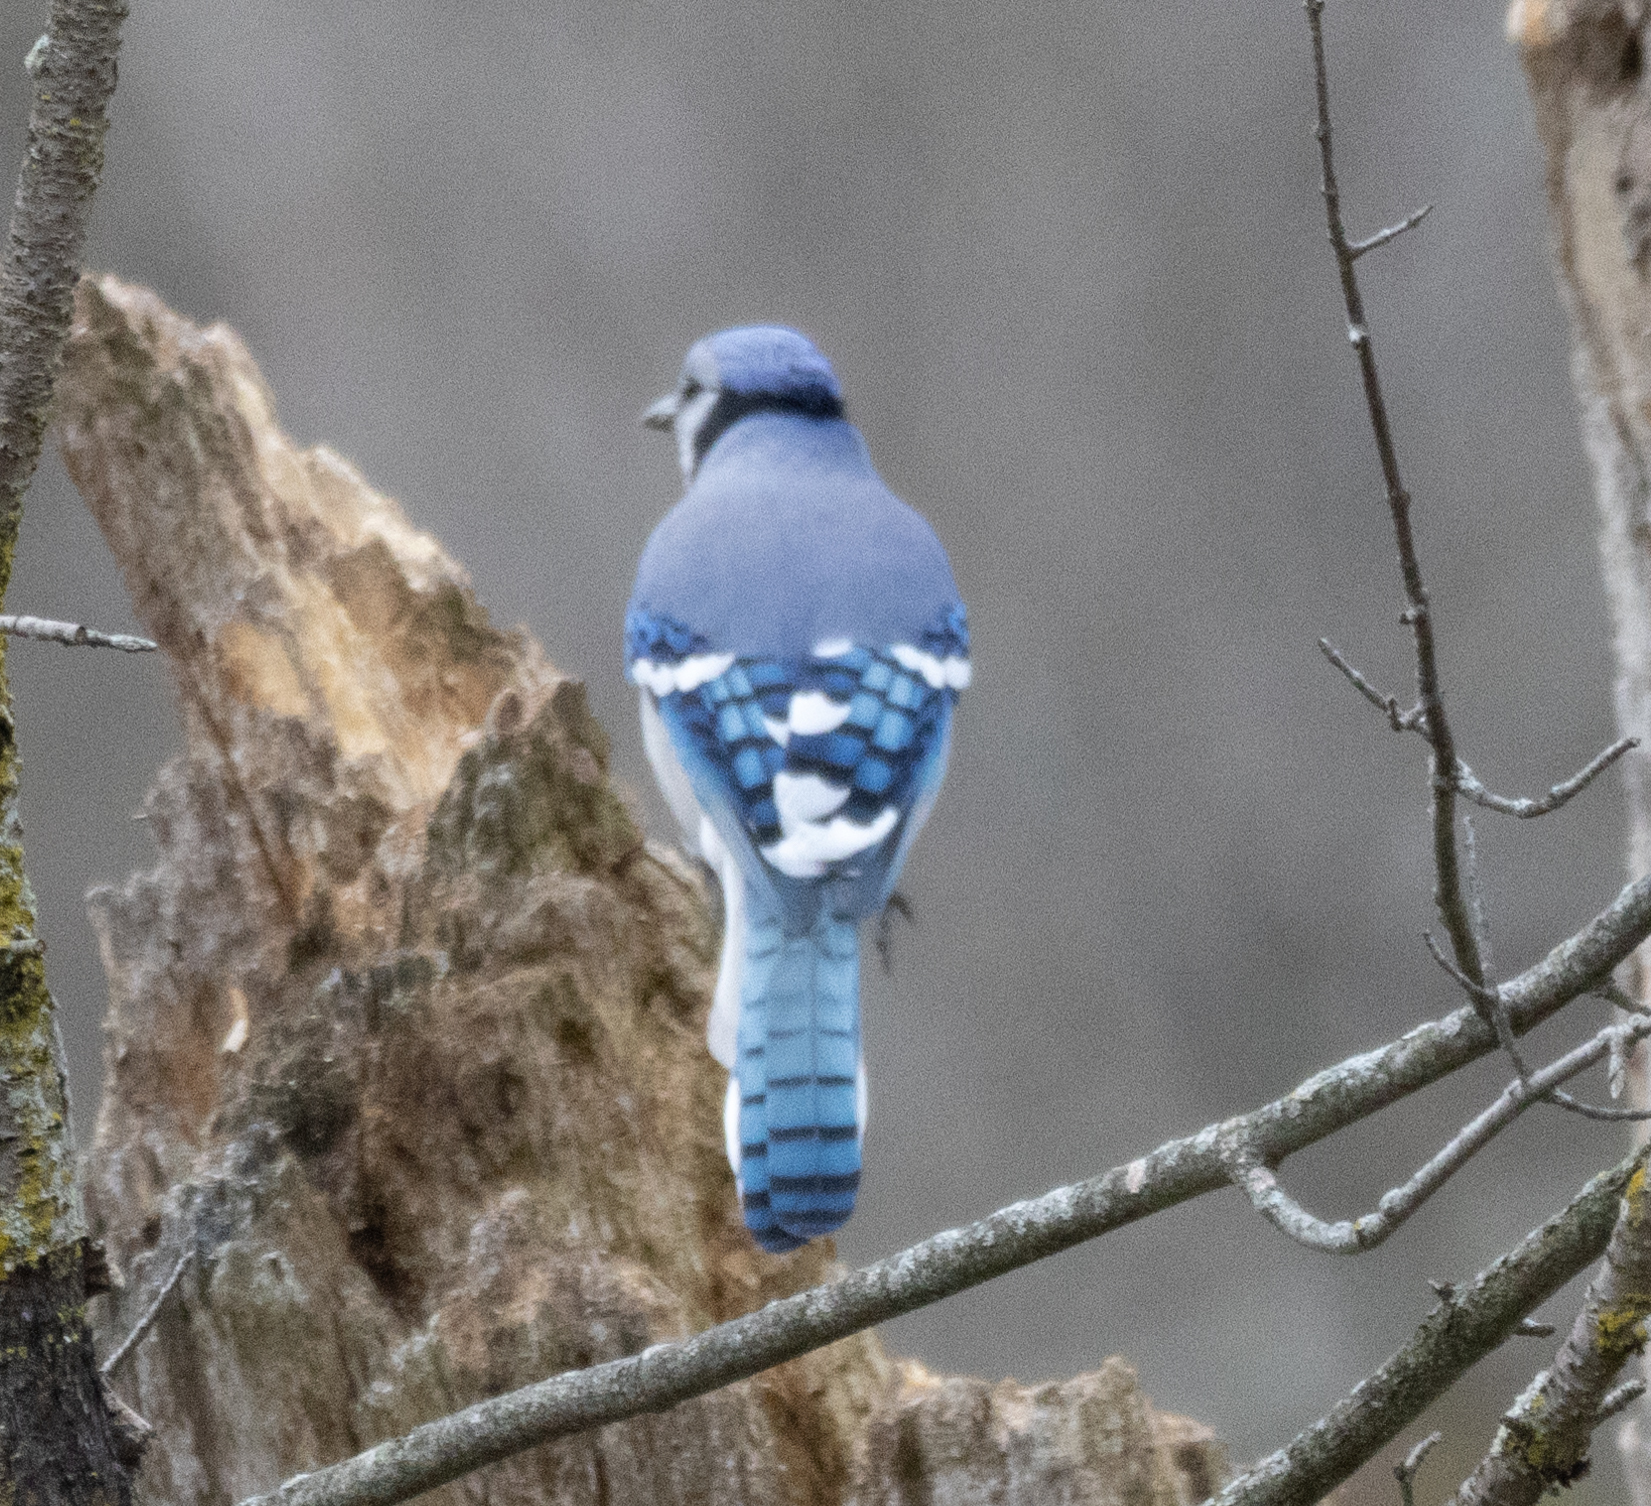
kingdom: Animalia
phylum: Chordata
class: Aves
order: Passeriformes
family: Corvidae
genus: Cyanocitta
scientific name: Cyanocitta cristata
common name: Blue jay
